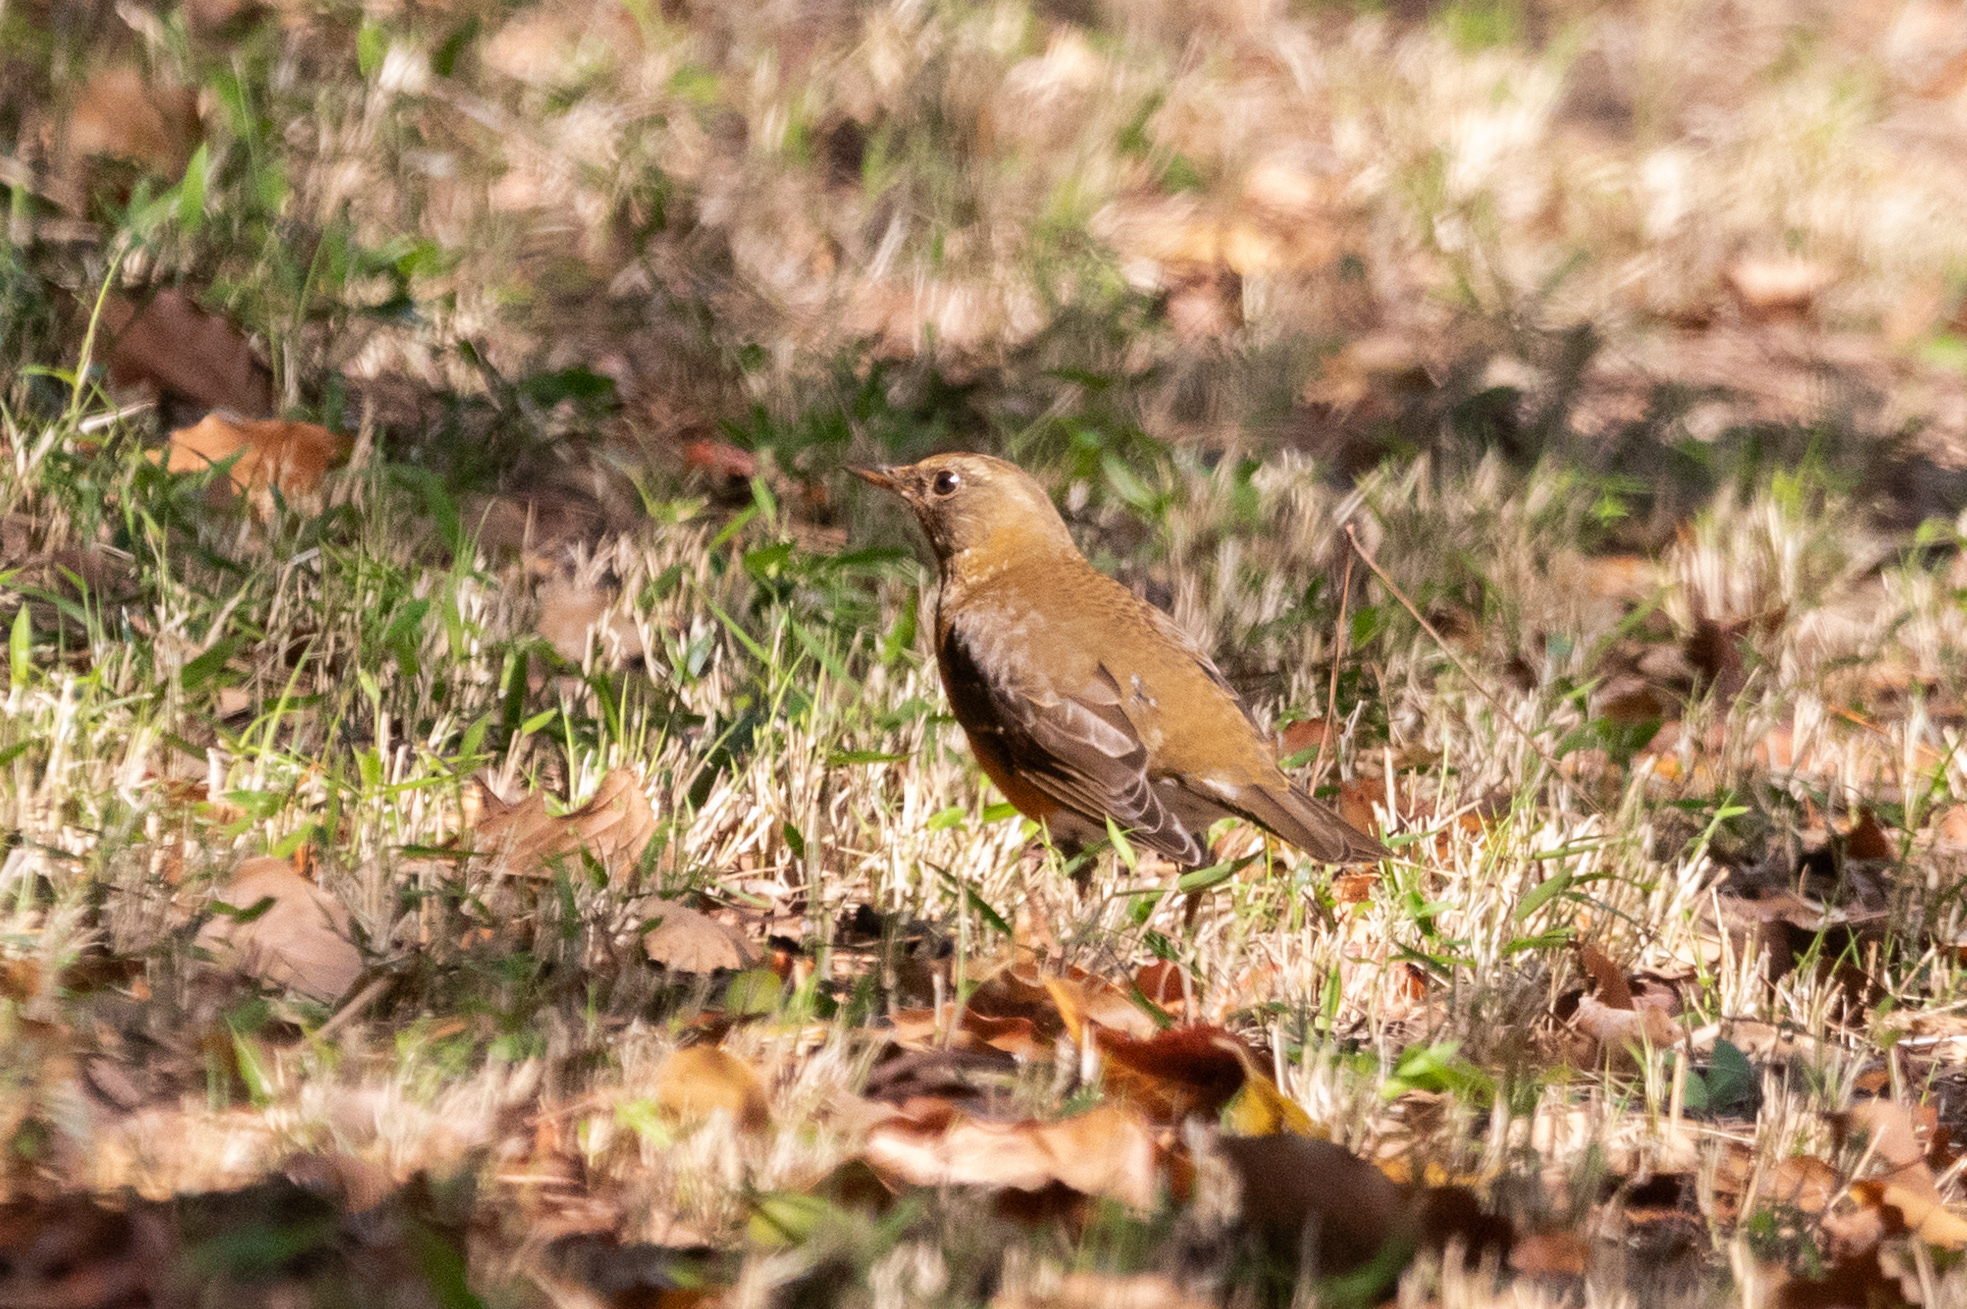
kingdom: Animalia
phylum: Chordata
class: Aves
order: Passeriformes
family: Turdidae
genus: Turdus
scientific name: Turdus chrysolaus
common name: Brown-headed thrush
